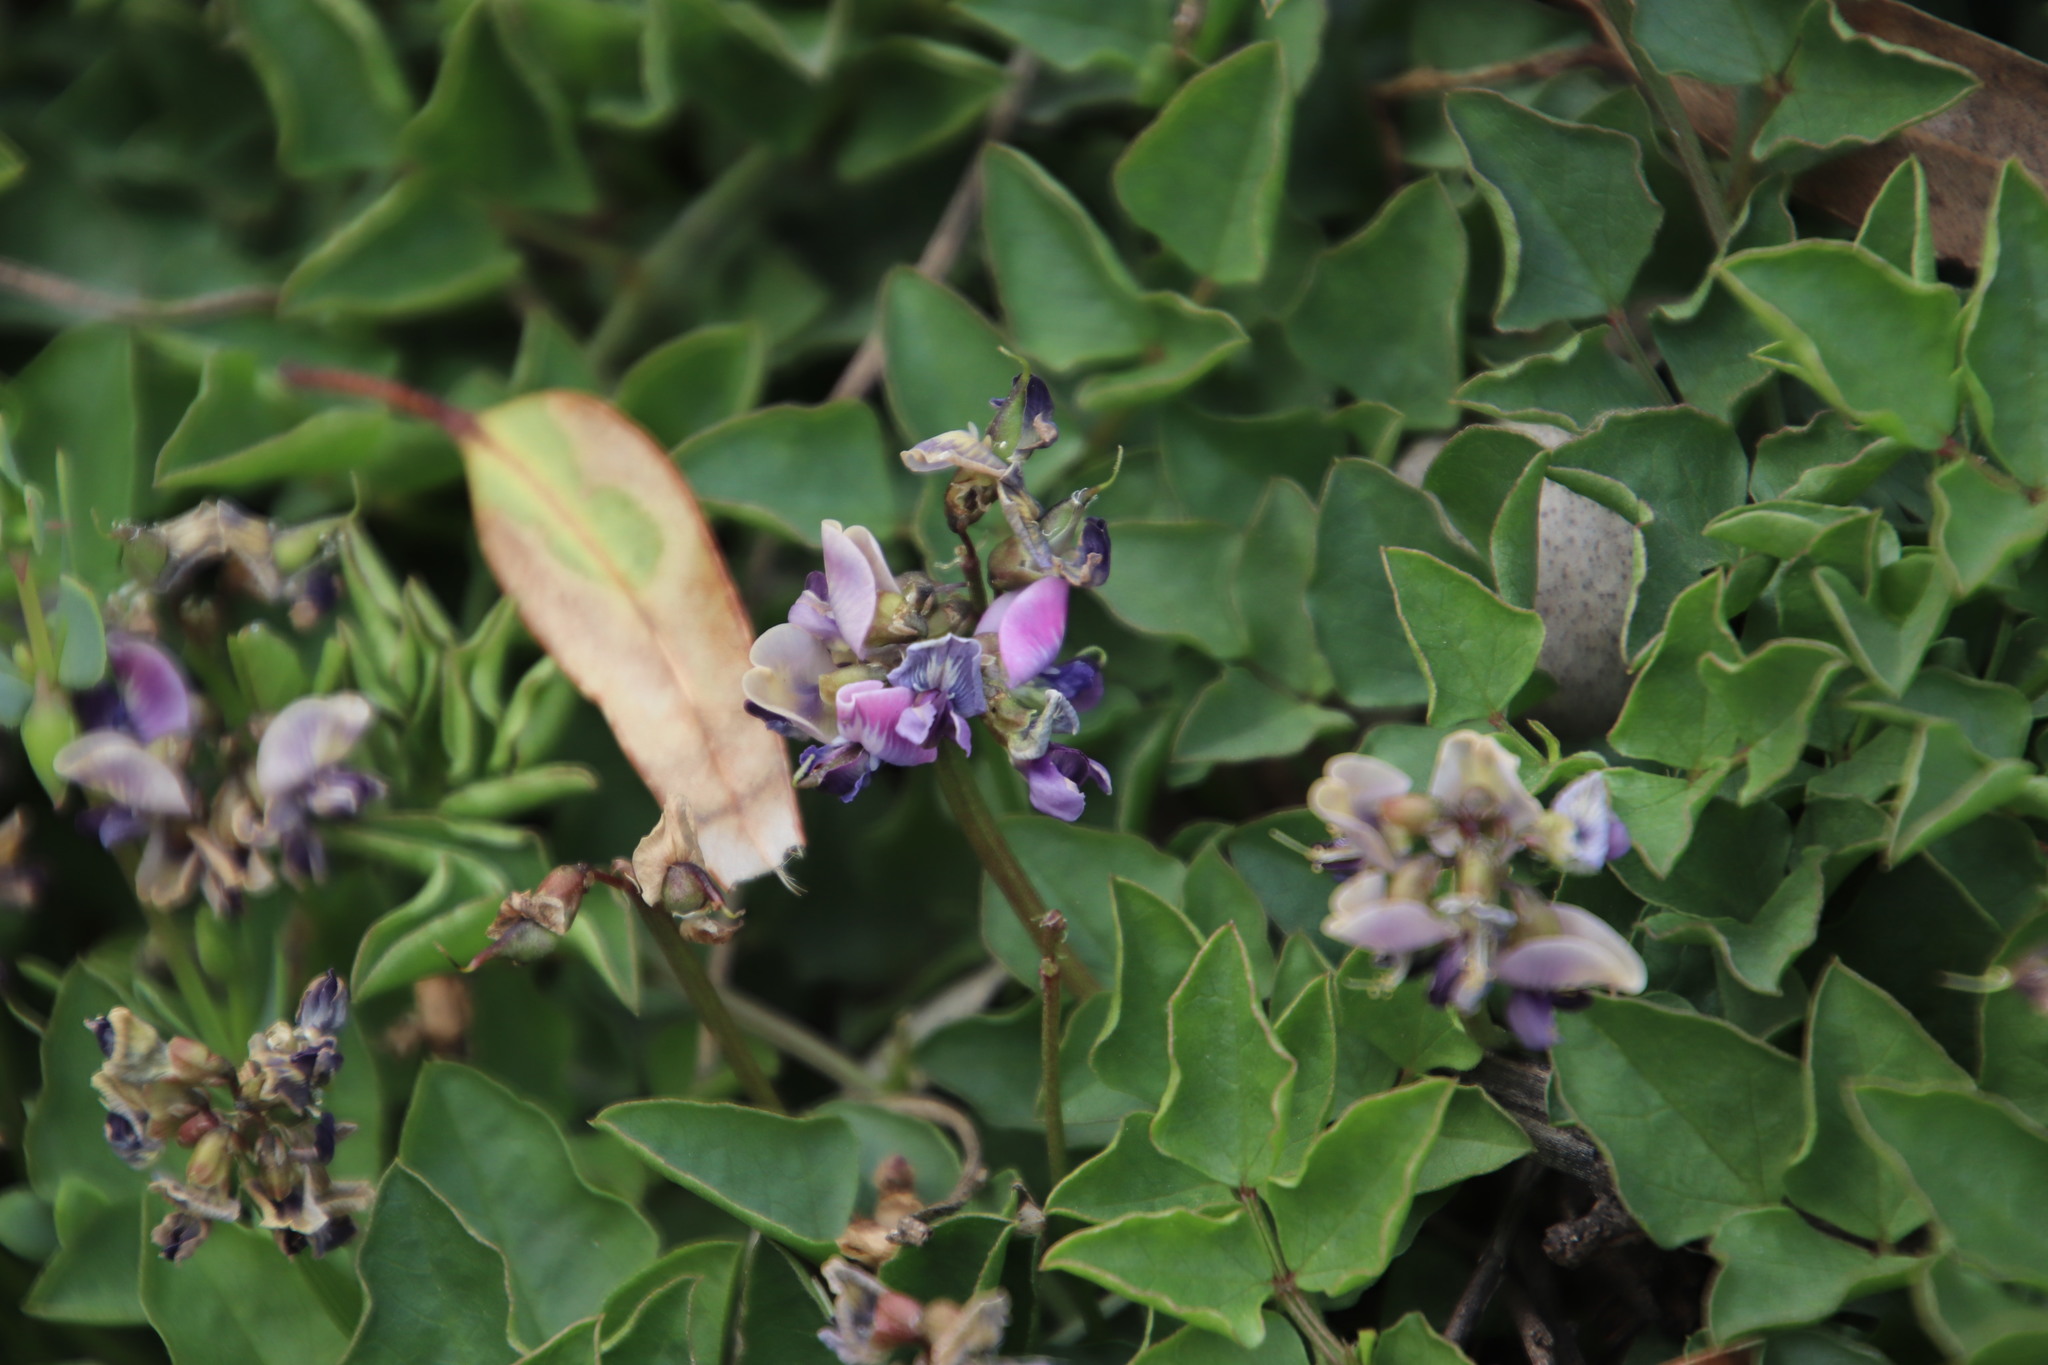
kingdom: Plantae
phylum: Tracheophyta
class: Magnoliopsida
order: Fabales
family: Fabaceae
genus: Dolichos
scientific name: Dolichos decumbens
